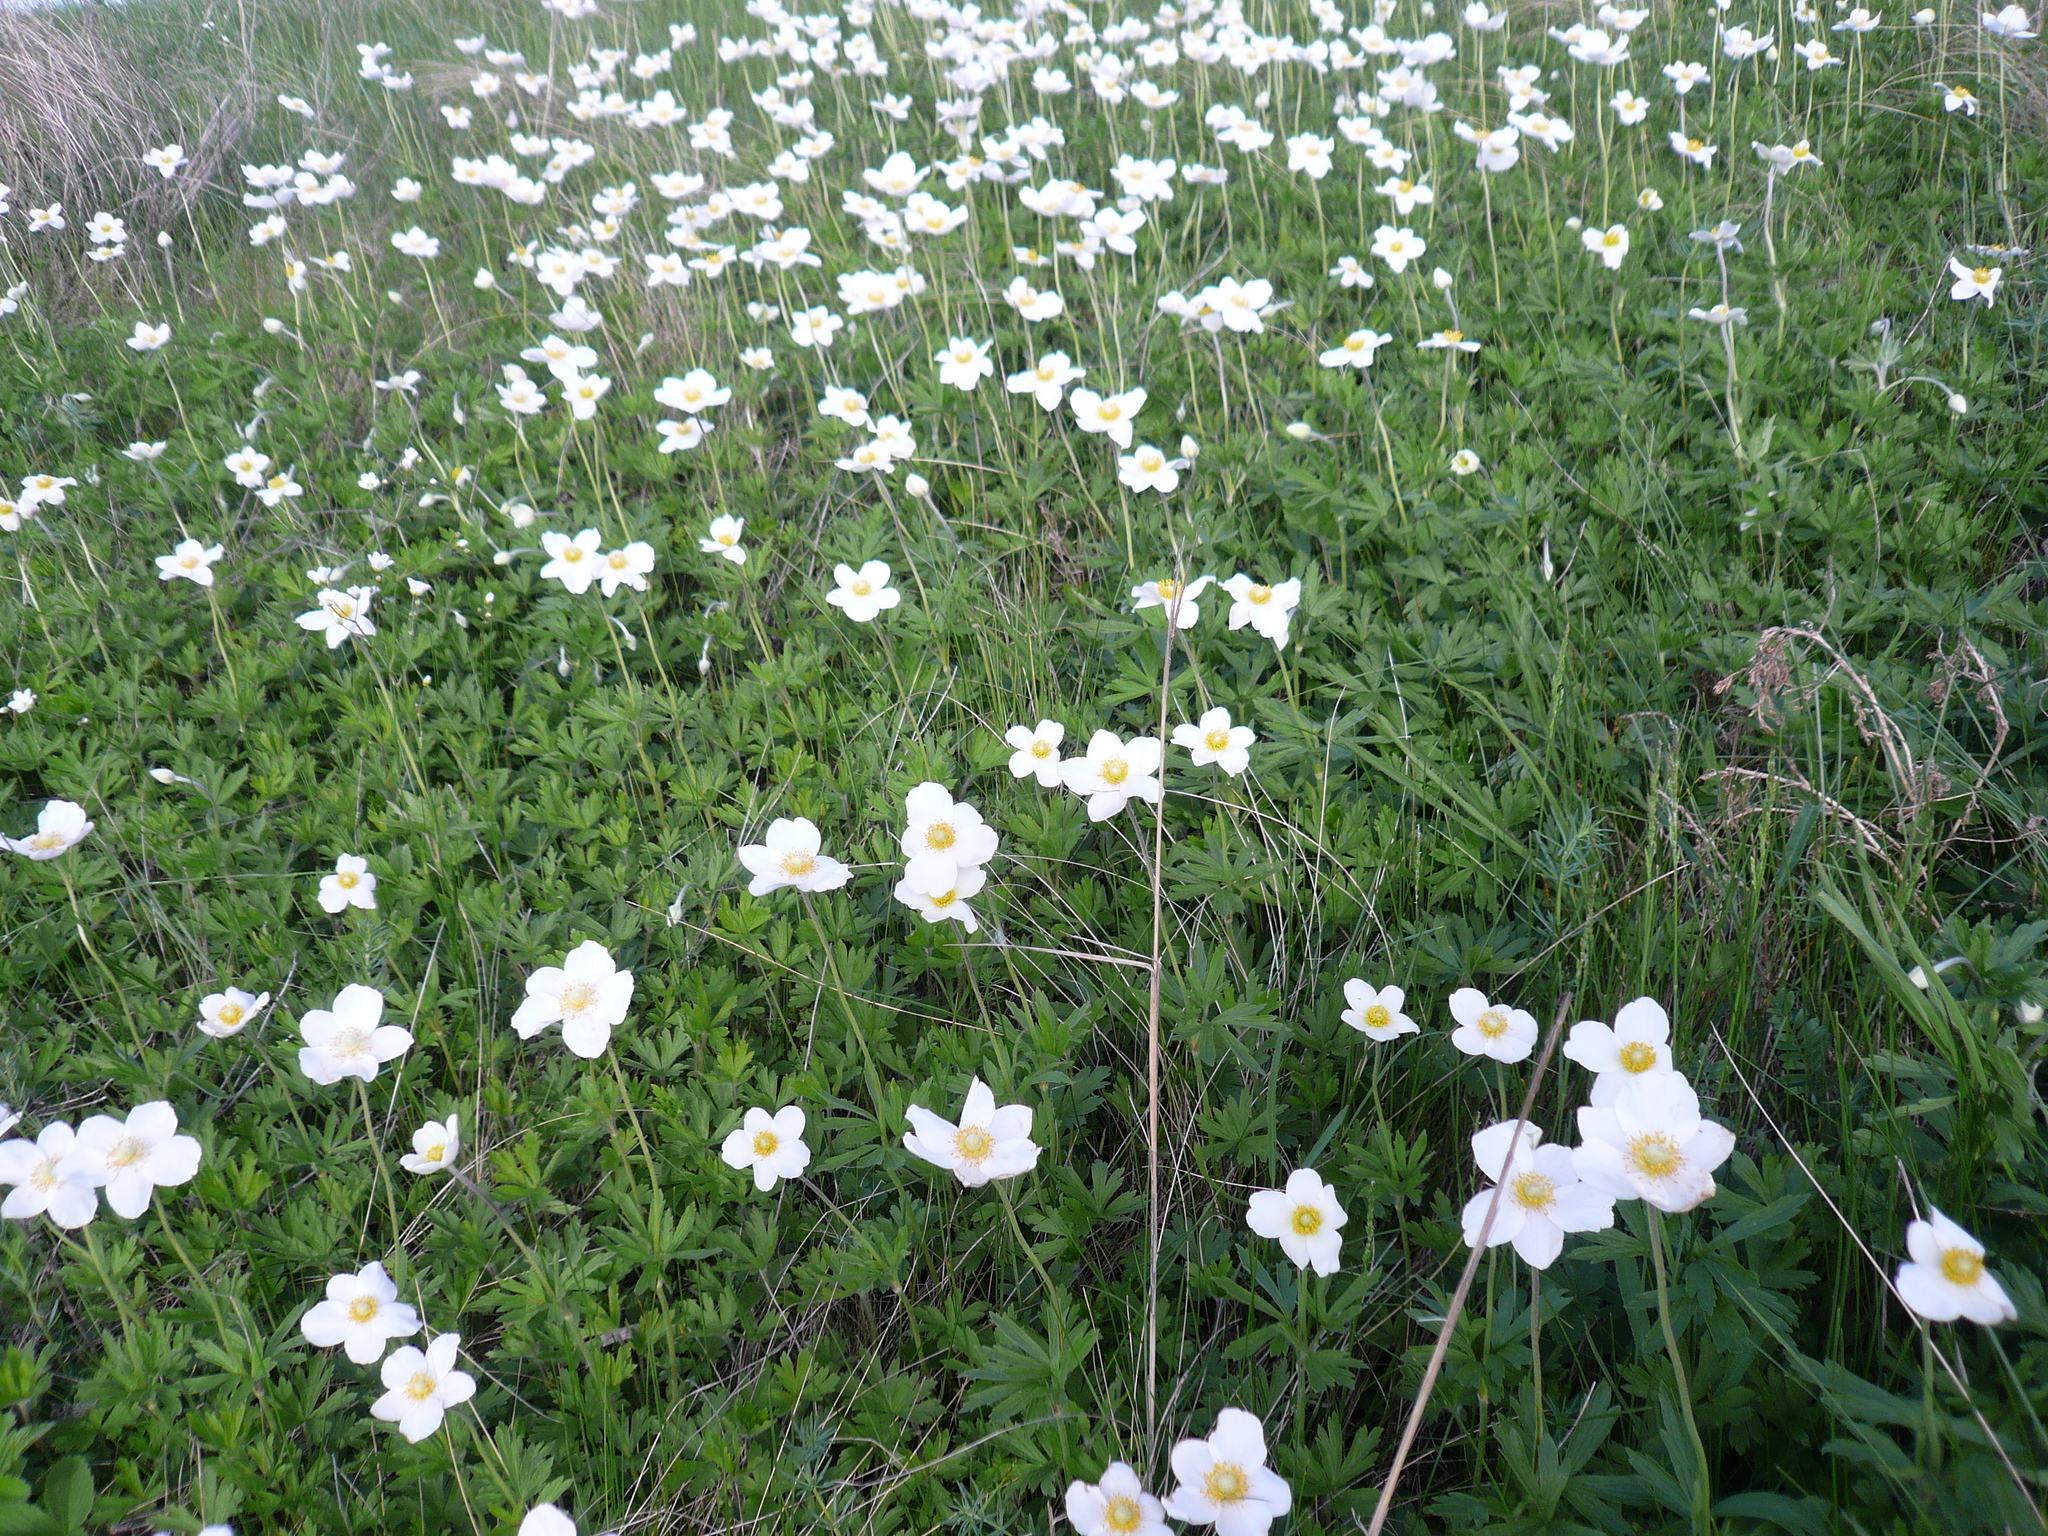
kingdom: Plantae
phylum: Tracheophyta
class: Magnoliopsida
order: Ranunculales
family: Ranunculaceae
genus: Anemone
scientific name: Anemone sylvestris
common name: Snowdrop anemone
